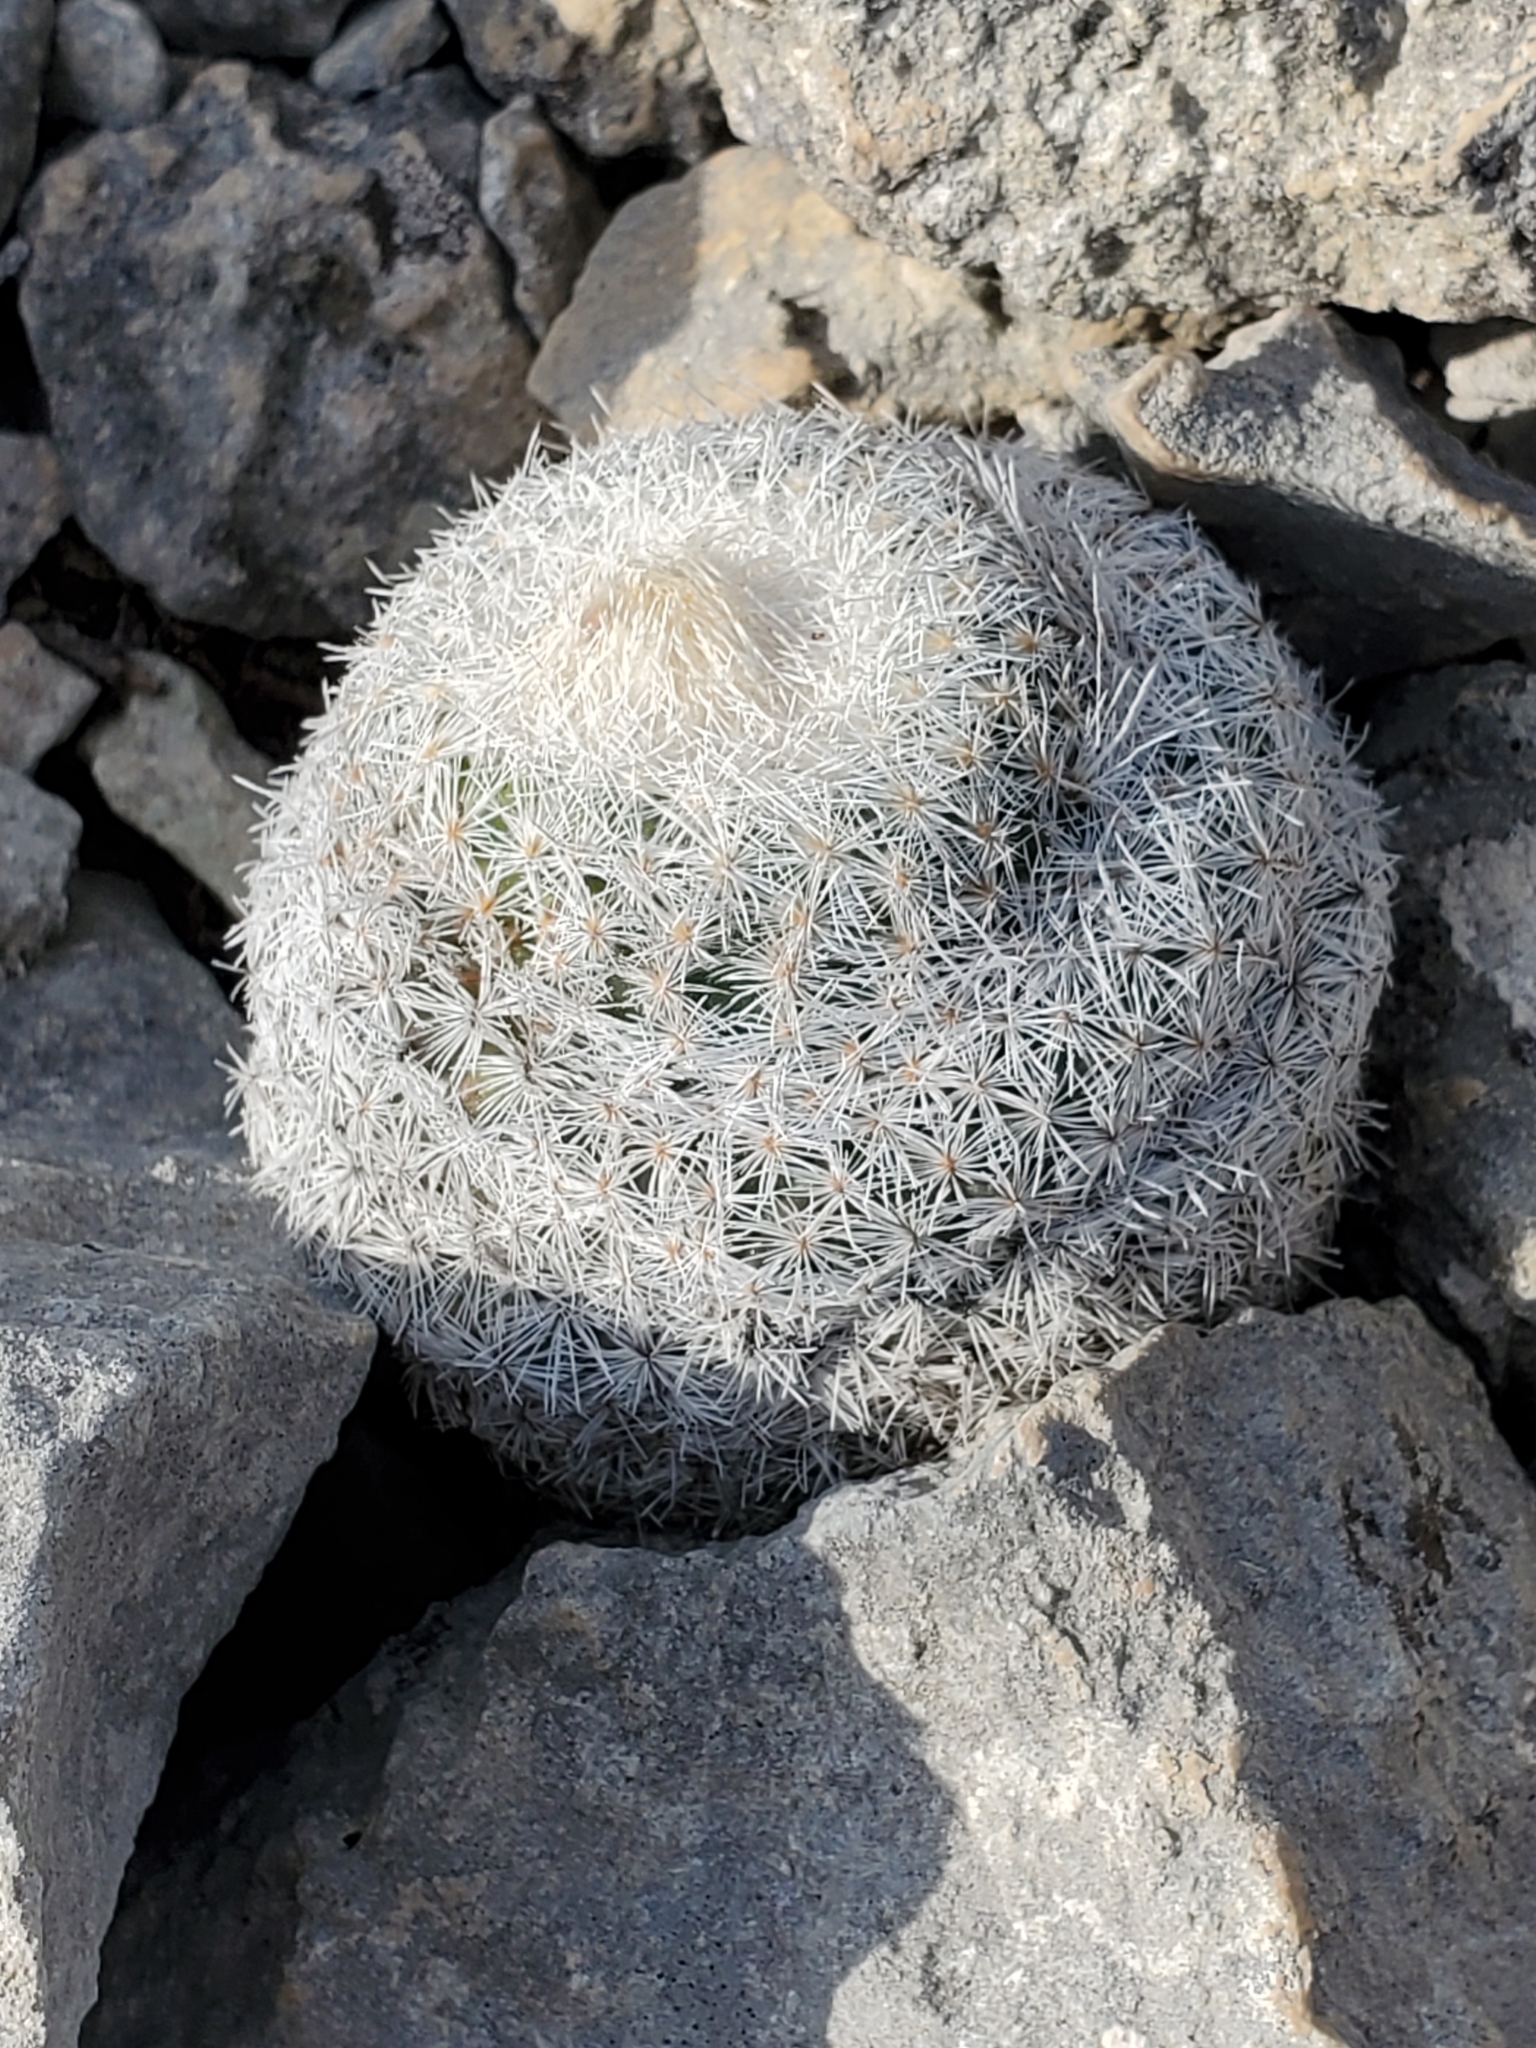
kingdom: Plantae
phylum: Tracheophyta
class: Magnoliopsida
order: Caryophyllales
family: Cactaceae
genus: Epithelantha
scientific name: Epithelantha micromeris
